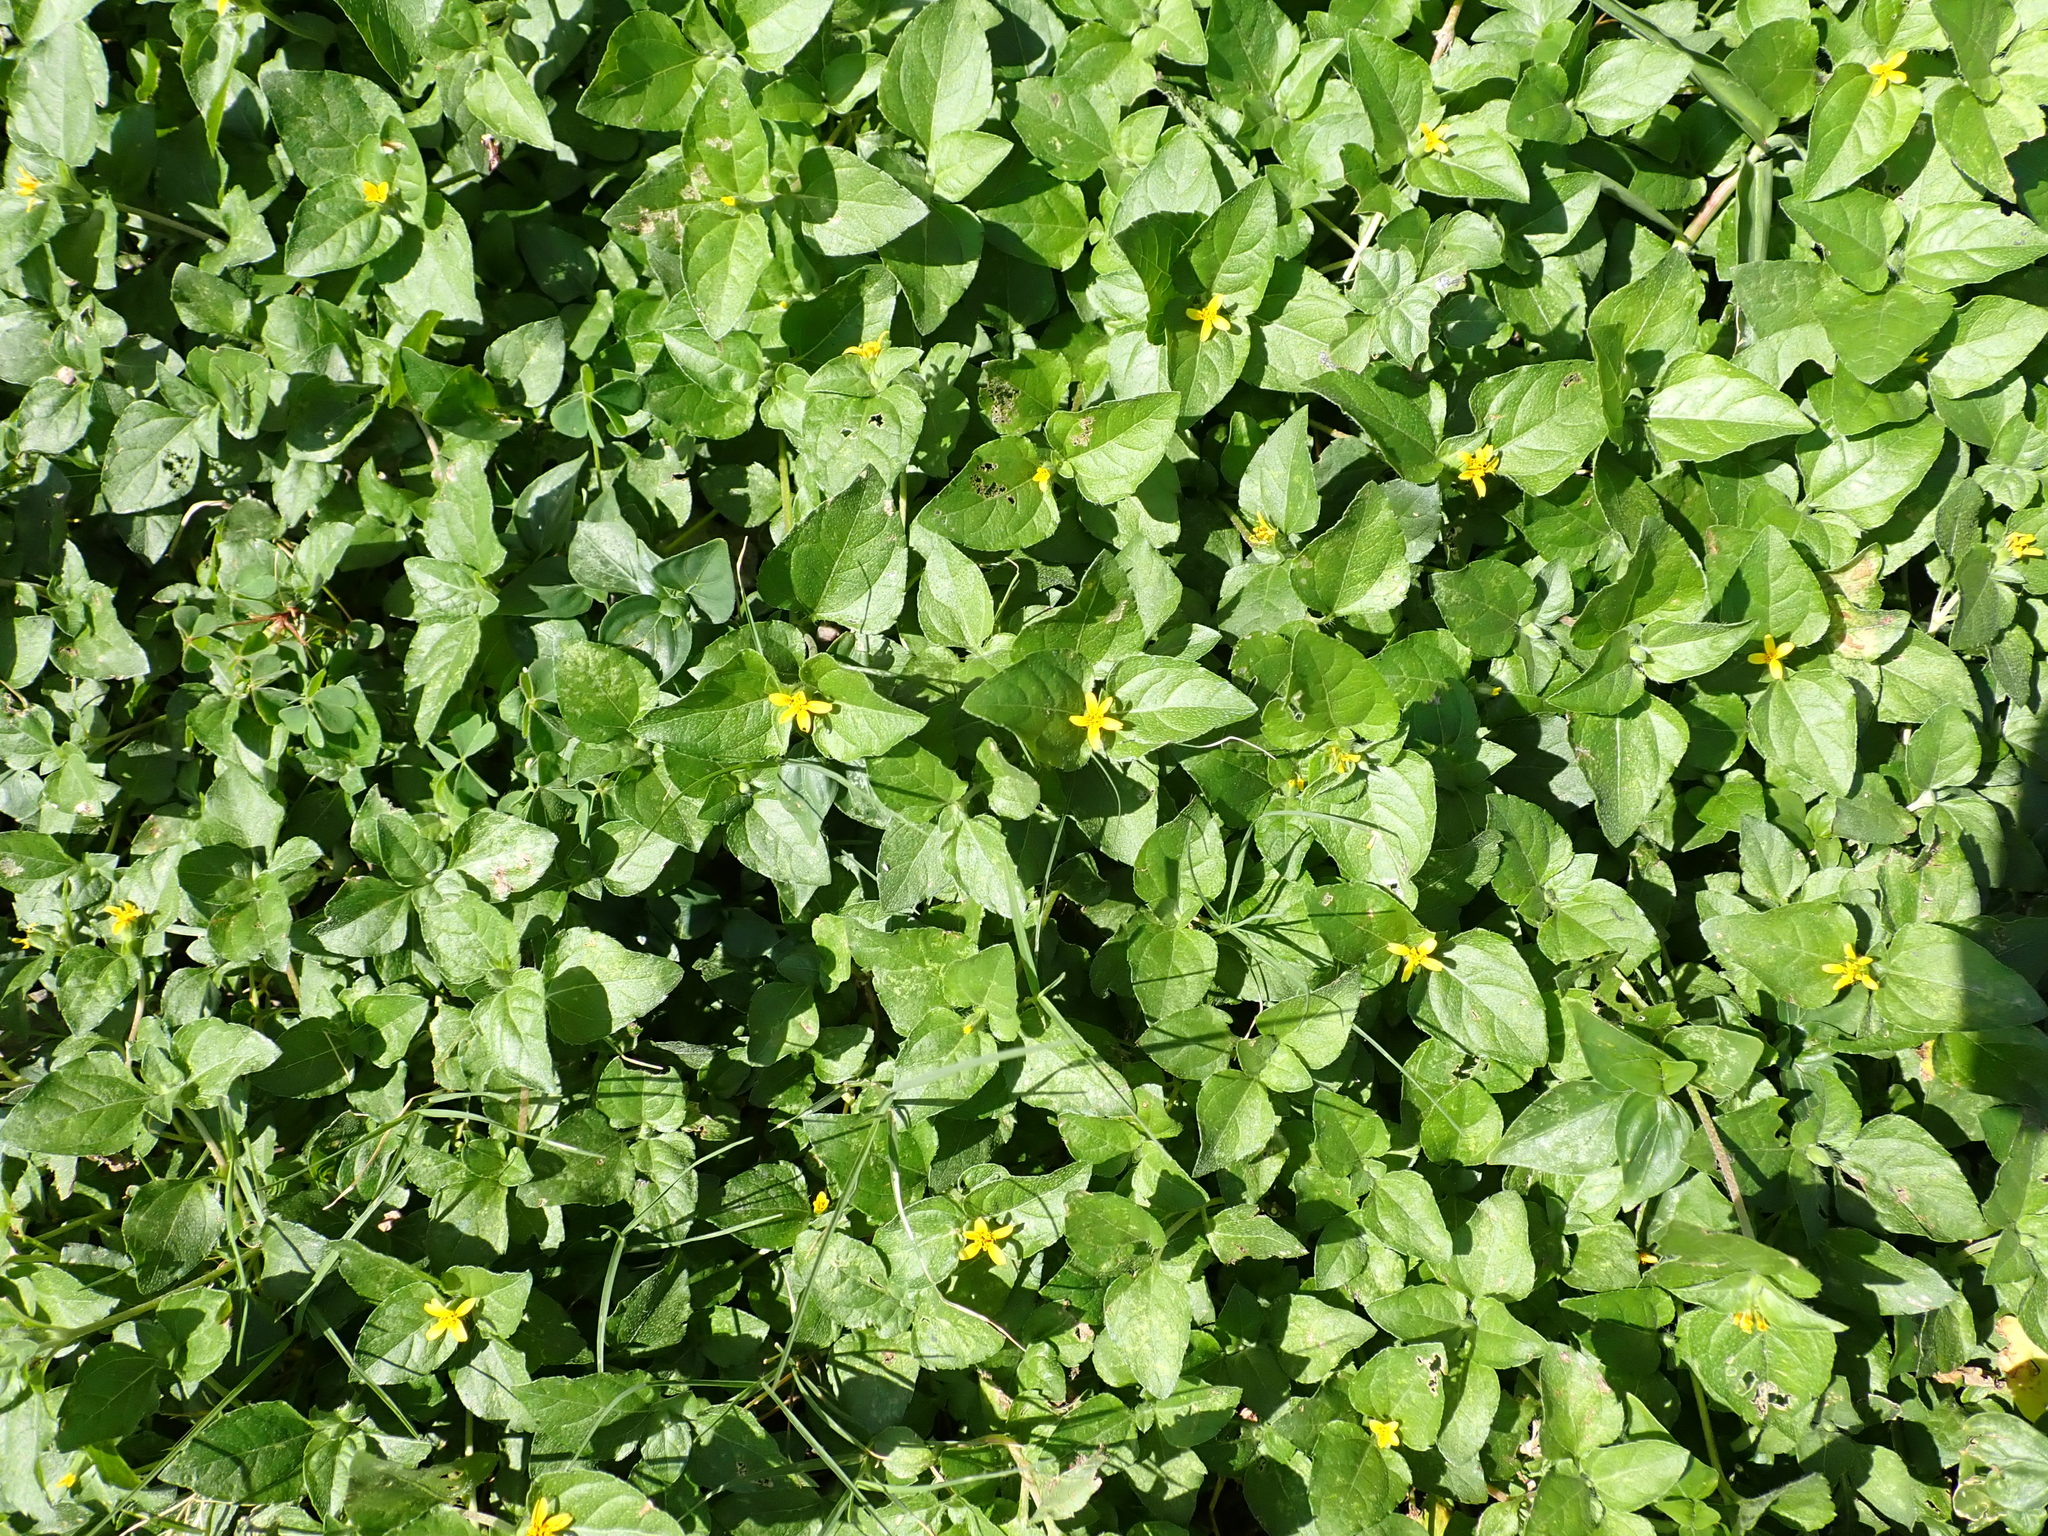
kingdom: Plantae
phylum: Tracheophyta
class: Magnoliopsida
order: Asterales
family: Asteraceae
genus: Calyptocarpus
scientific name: Calyptocarpus vialis
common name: Straggler daisy
